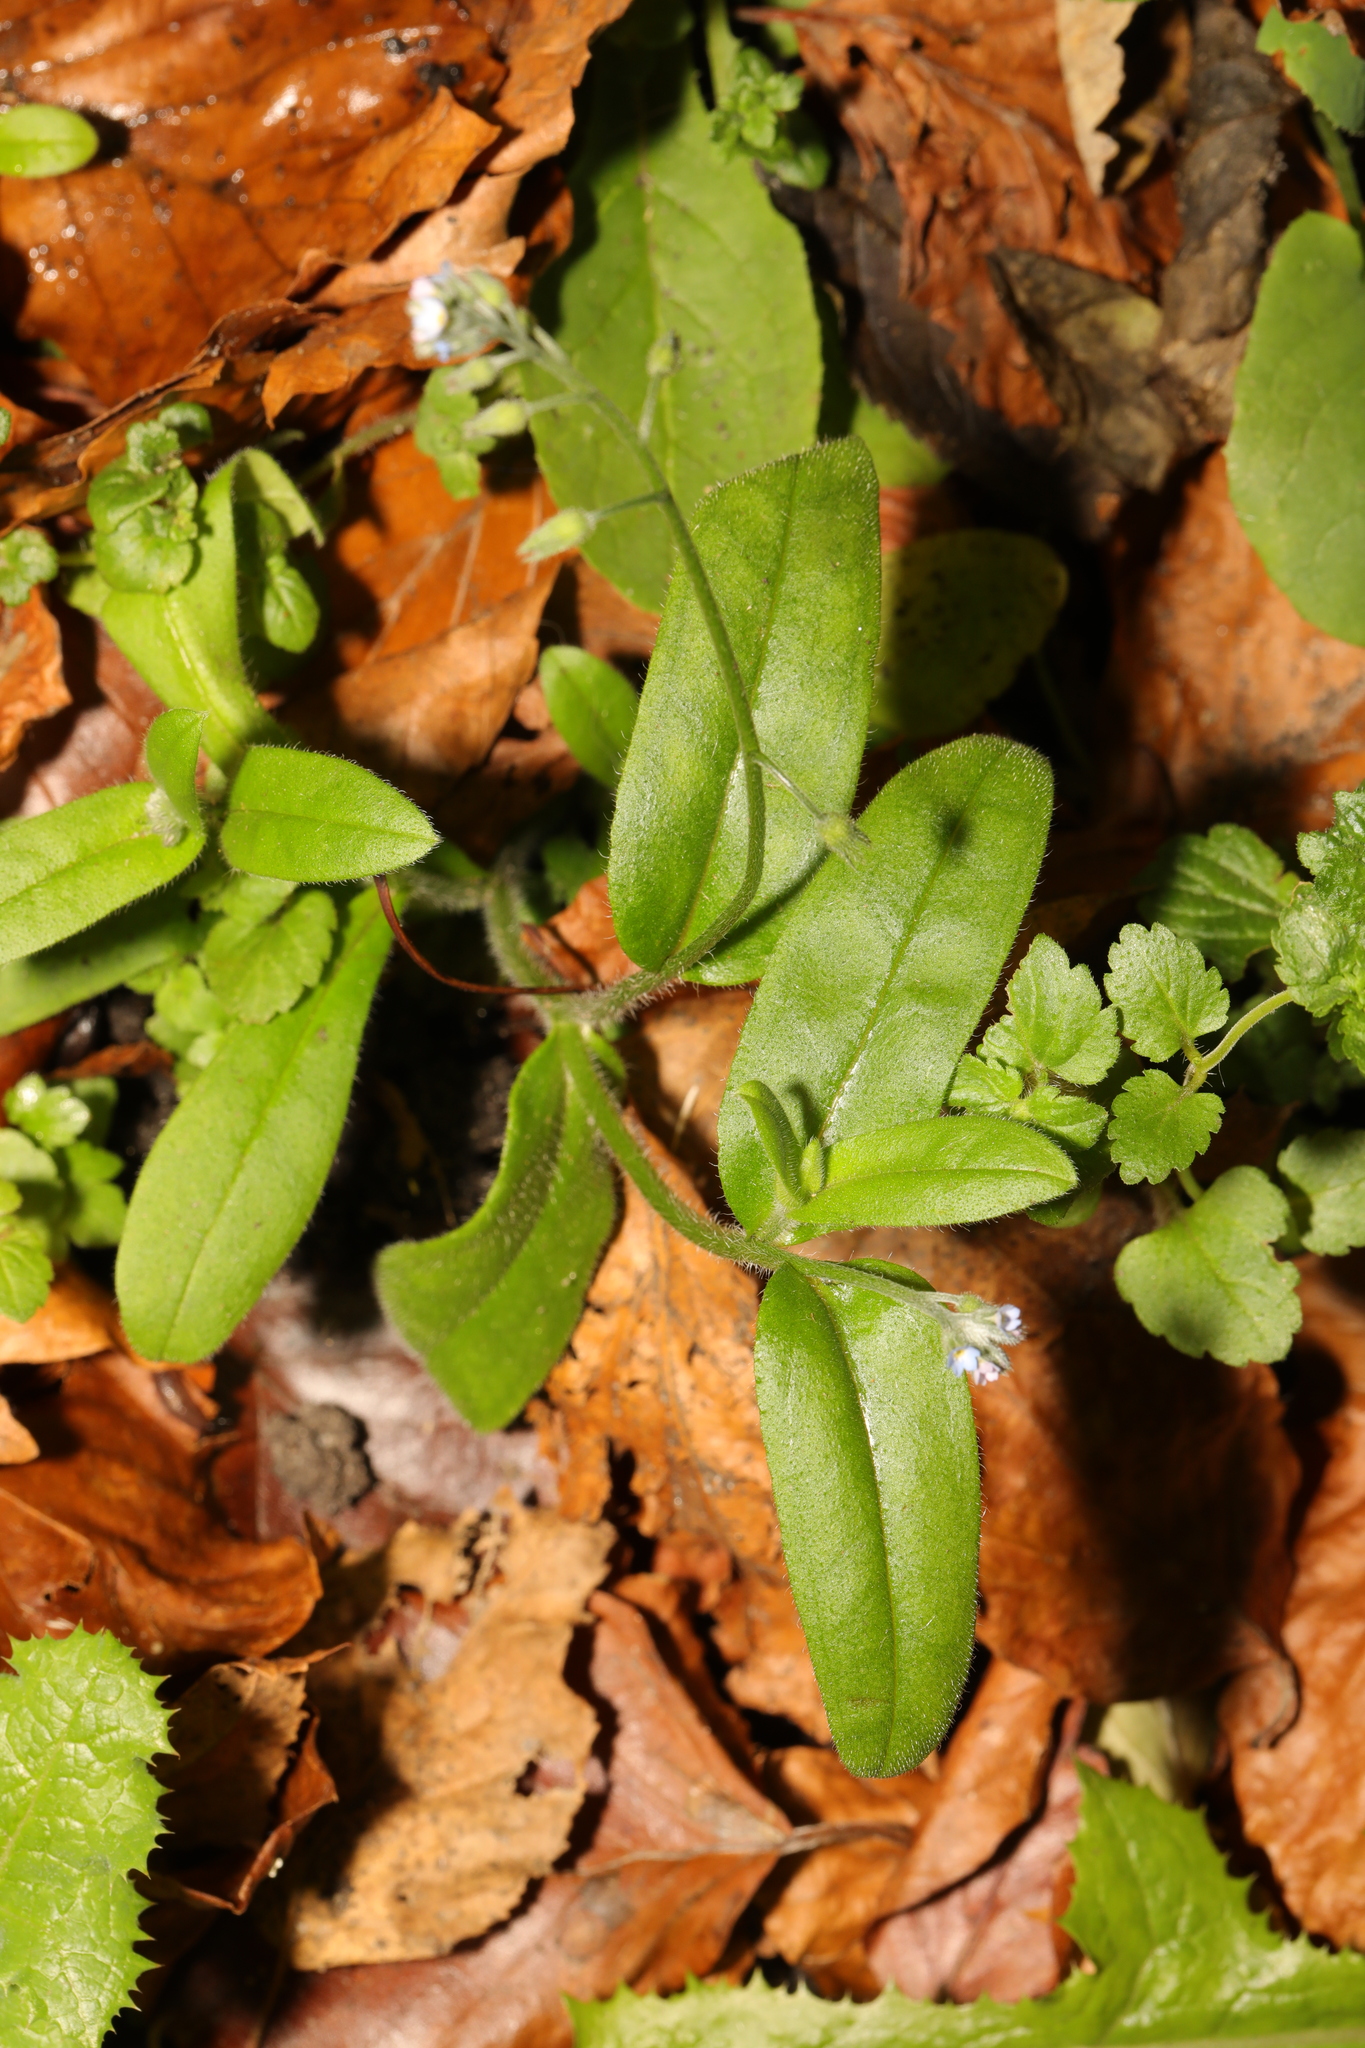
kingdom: Plantae
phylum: Tracheophyta
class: Magnoliopsida
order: Boraginales
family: Boraginaceae
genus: Myosotis
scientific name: Myosotis sylvatica
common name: Wood forget-me-not
